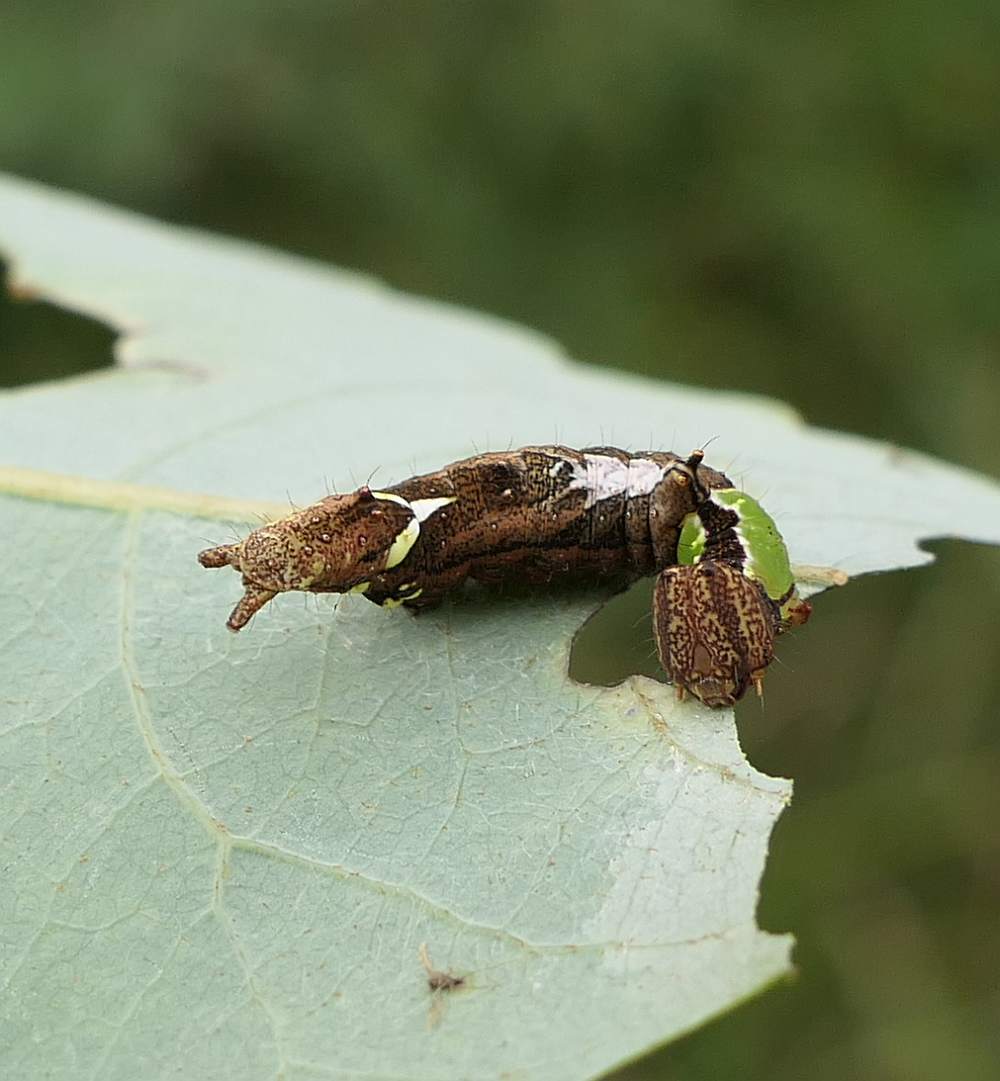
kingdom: Animalia
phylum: Arthropoda
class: Insecta
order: Lepidoptera
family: Notodontidae
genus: Schizura
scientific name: Schizura
